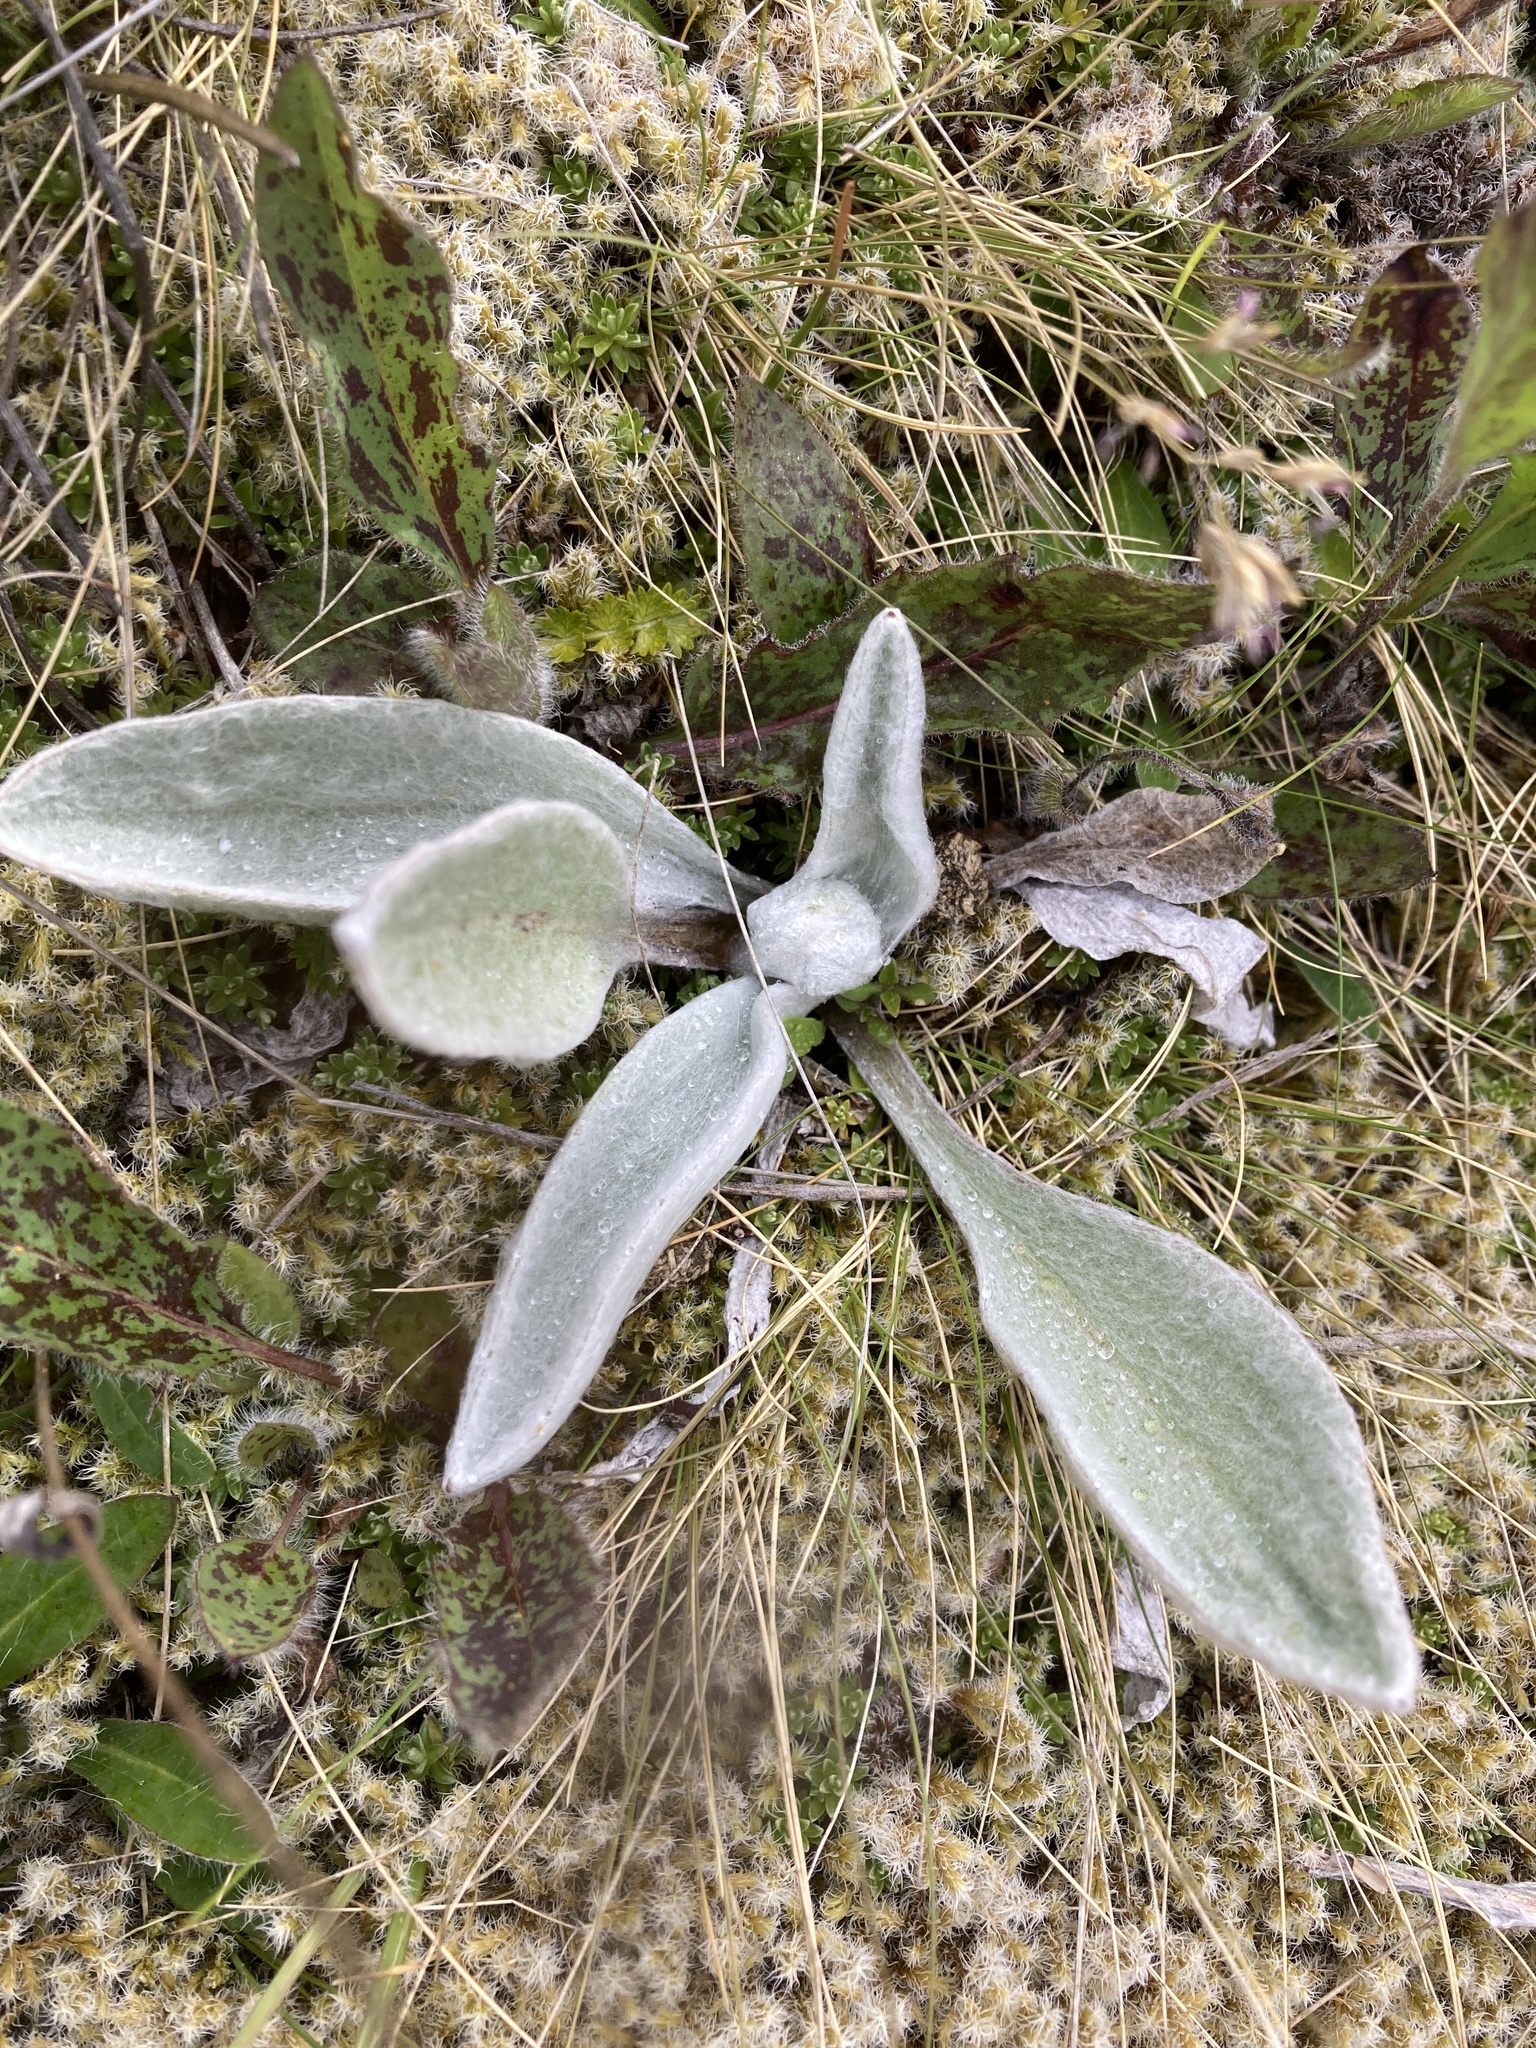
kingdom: Plantae
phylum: Tracheophyta
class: Magnoliopsida
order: Asterales
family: Asteraceae
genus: Craspedia
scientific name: Craspedia lanata
